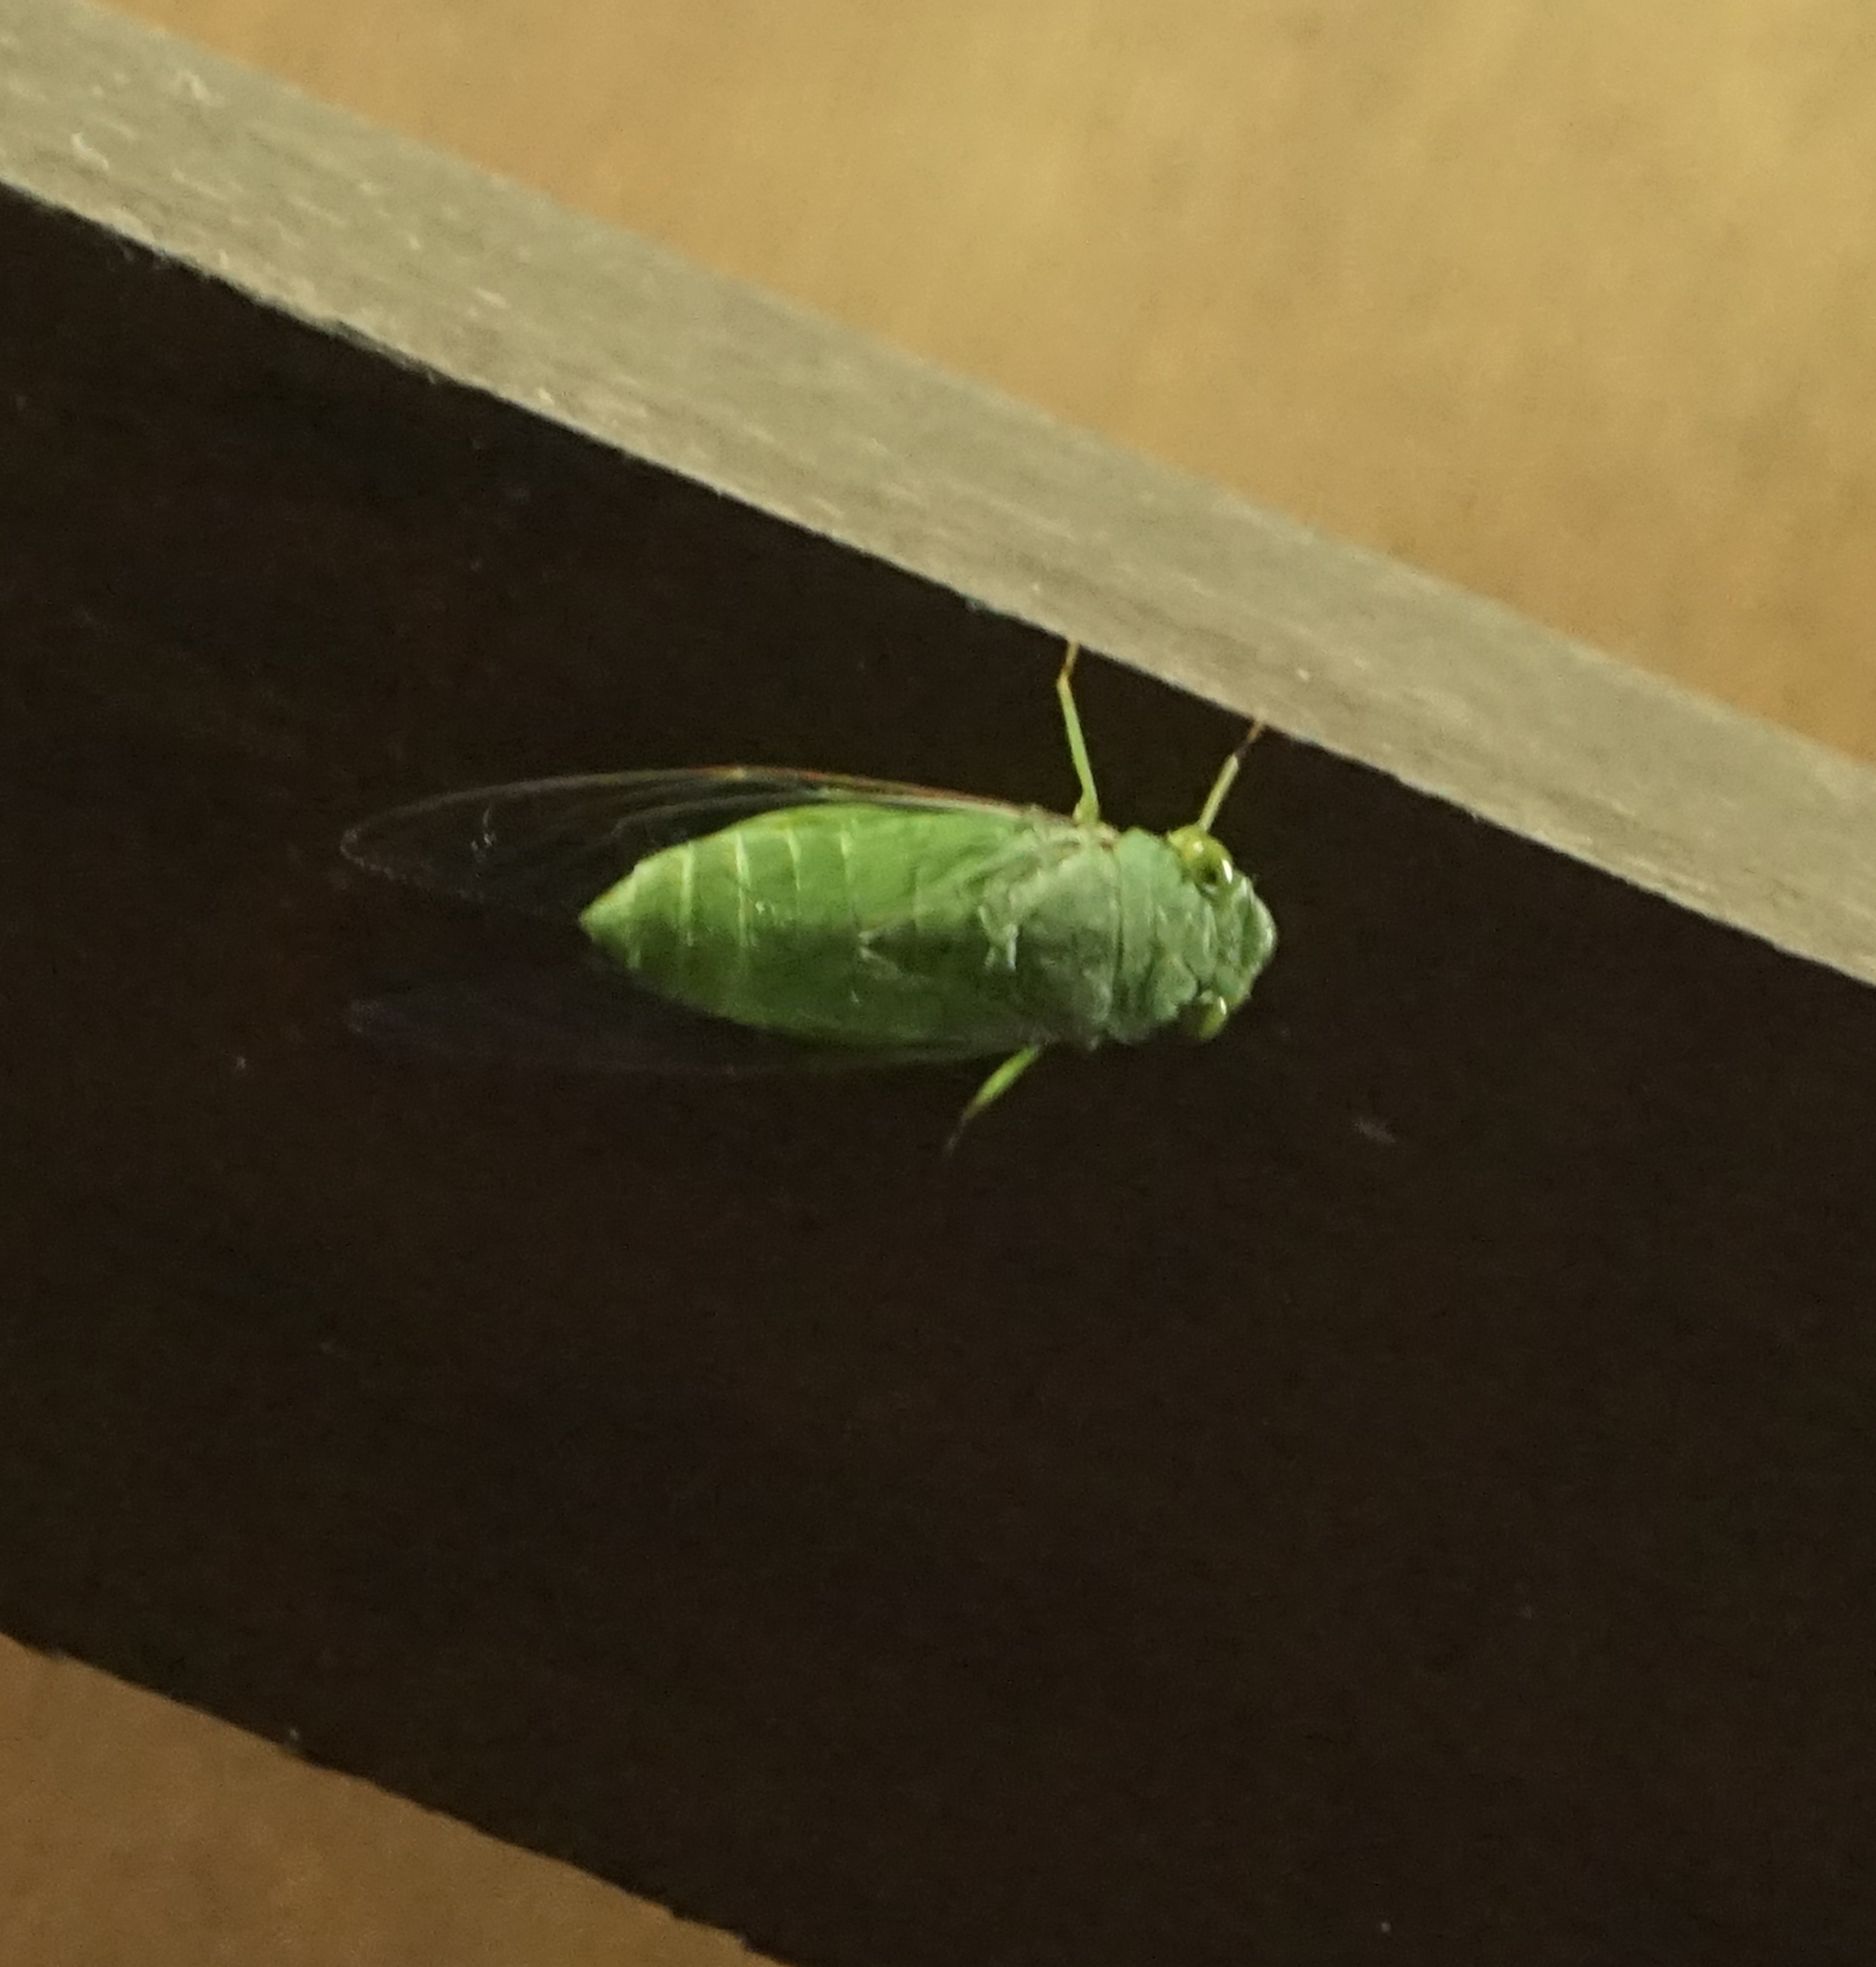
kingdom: Animalia
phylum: Arthropoda
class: Insecta
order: Hemiptera
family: Cicadidae
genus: Dundubia
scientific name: Dundubia vaginata
